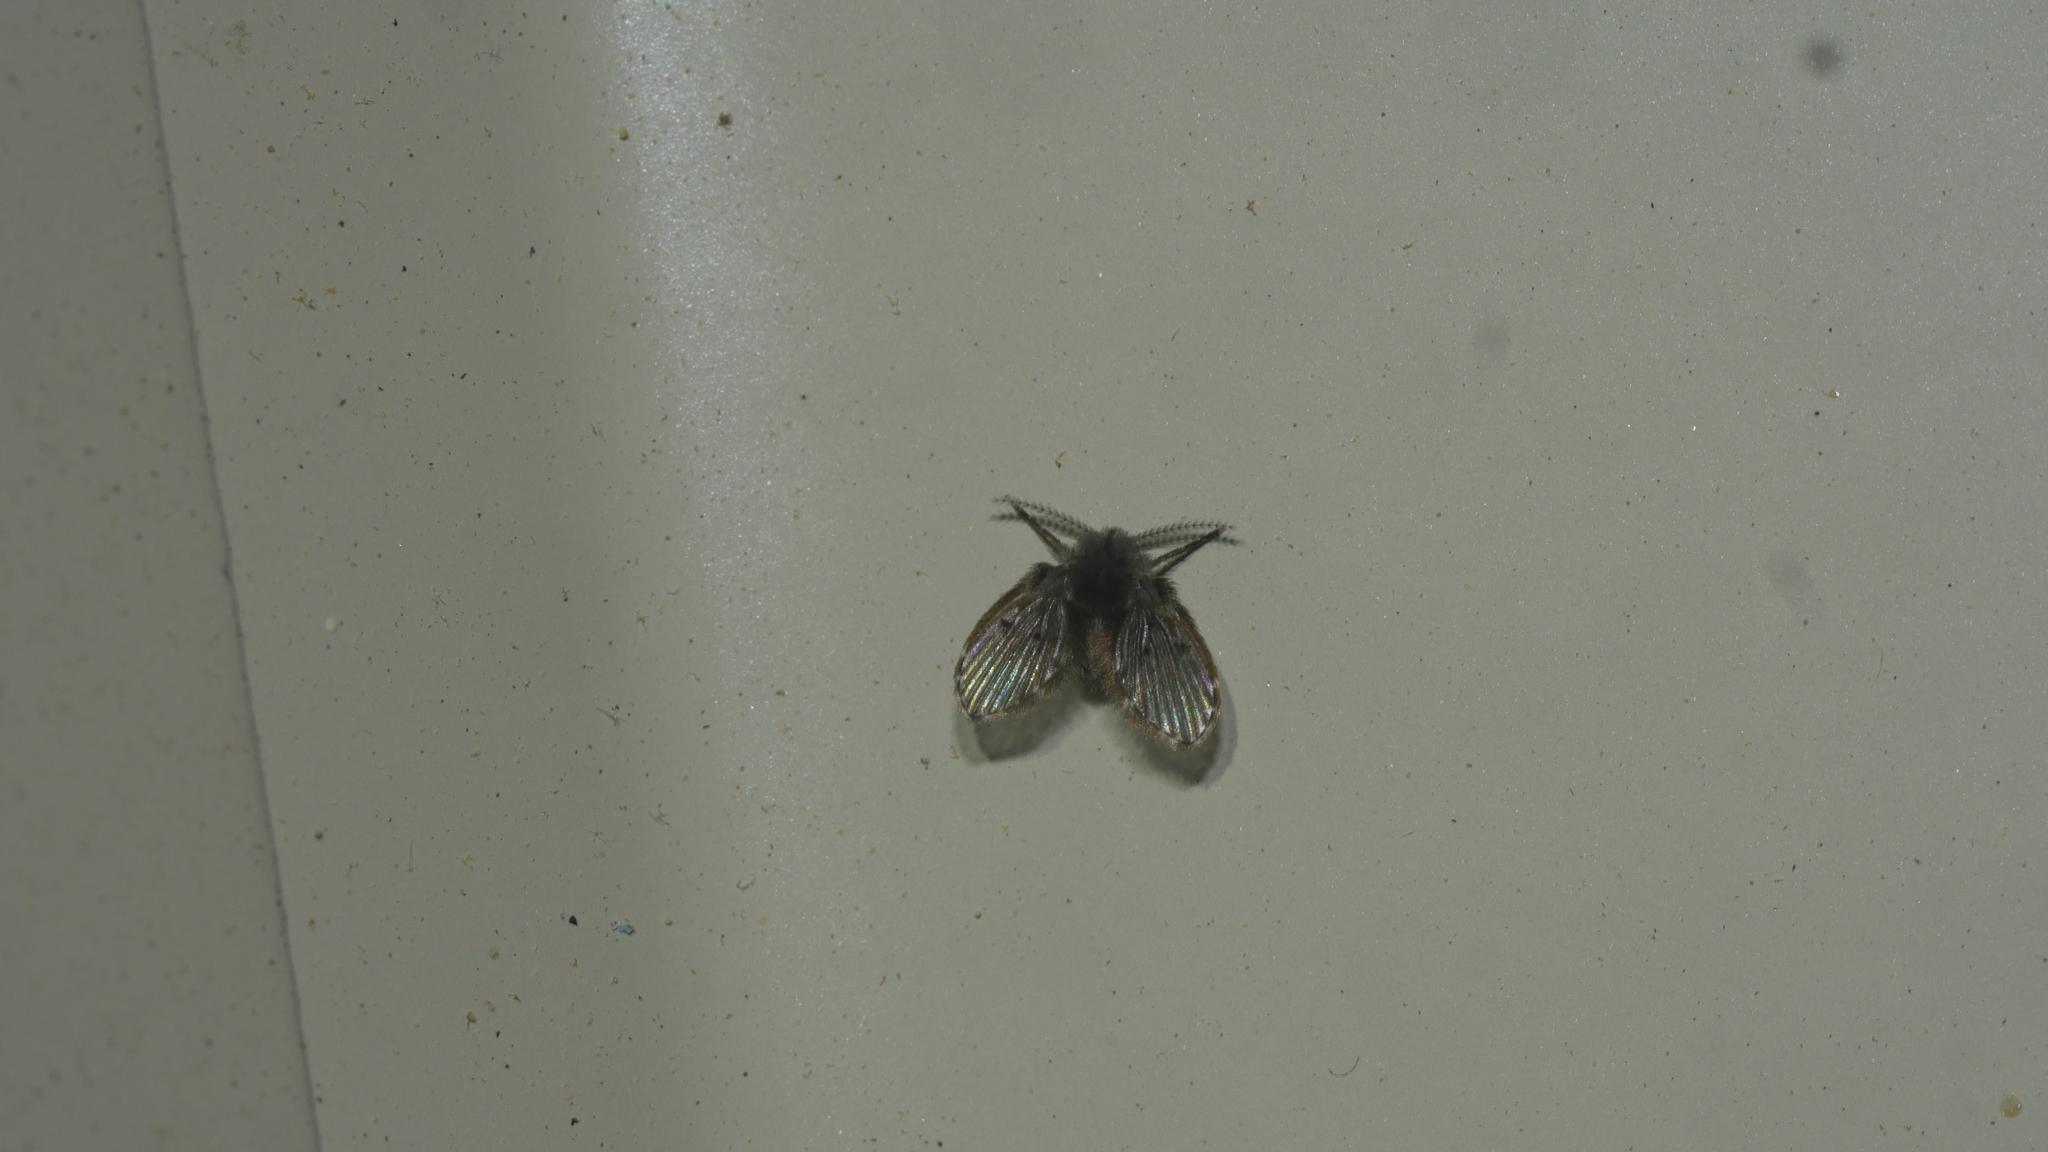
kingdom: Animalia
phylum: Arthropoda
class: Insecta
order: Diptera
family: Psychodidae
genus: Clogmia
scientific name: Clogmia albipunctatus
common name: White-spotted moth fly
